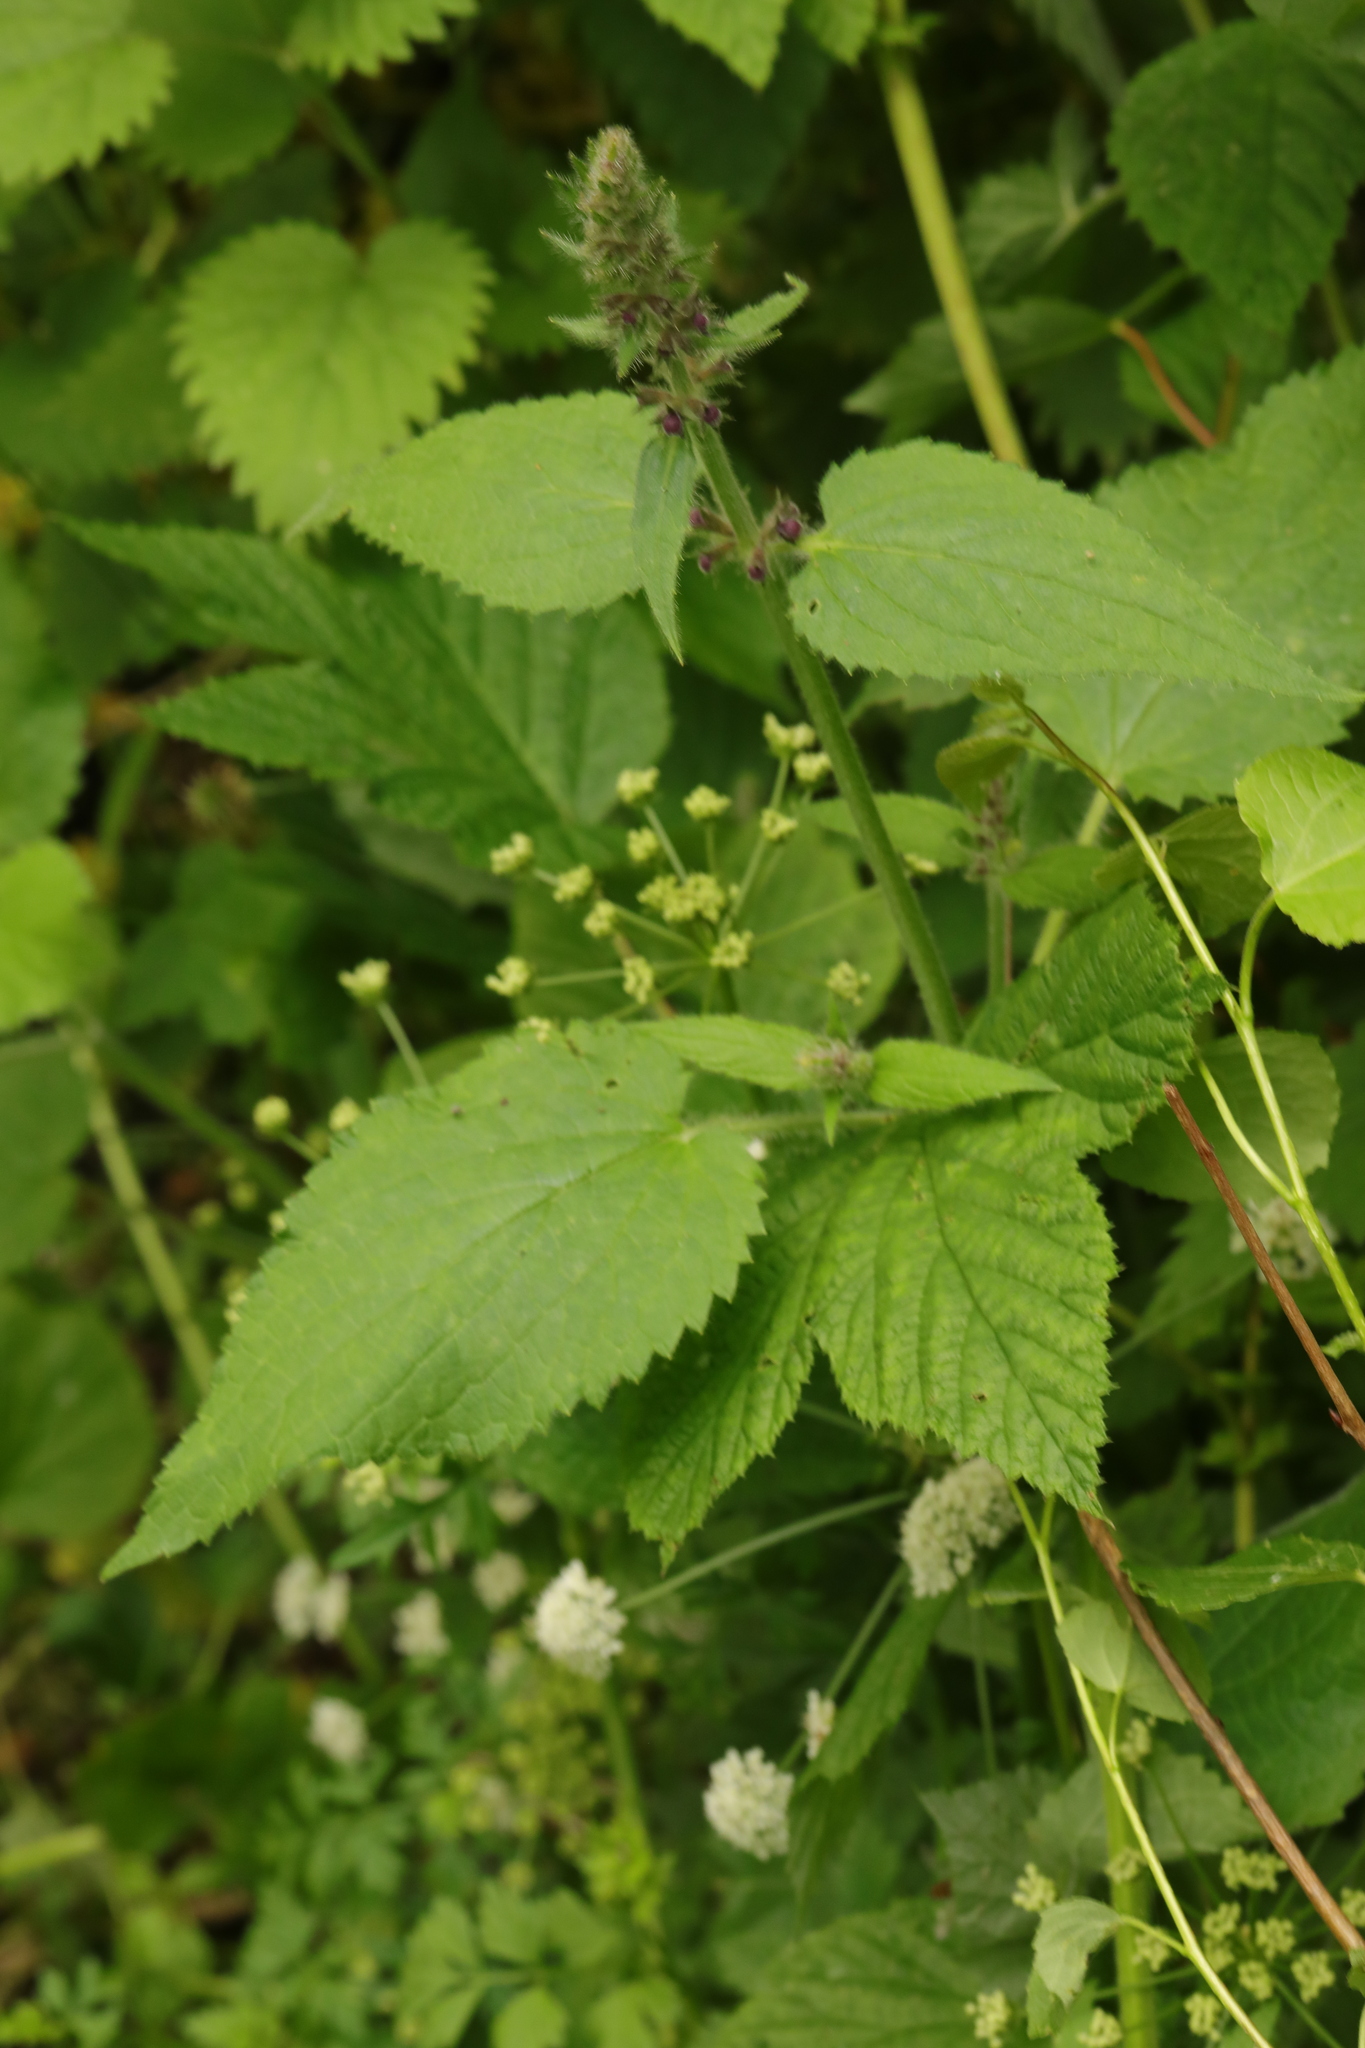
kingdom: Plantae
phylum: Tracheophyta
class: Magnoliopsida
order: Lamiales
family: Lamiaceae
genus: Stachys
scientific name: Stachys sylvatica
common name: Hedge woundwort
